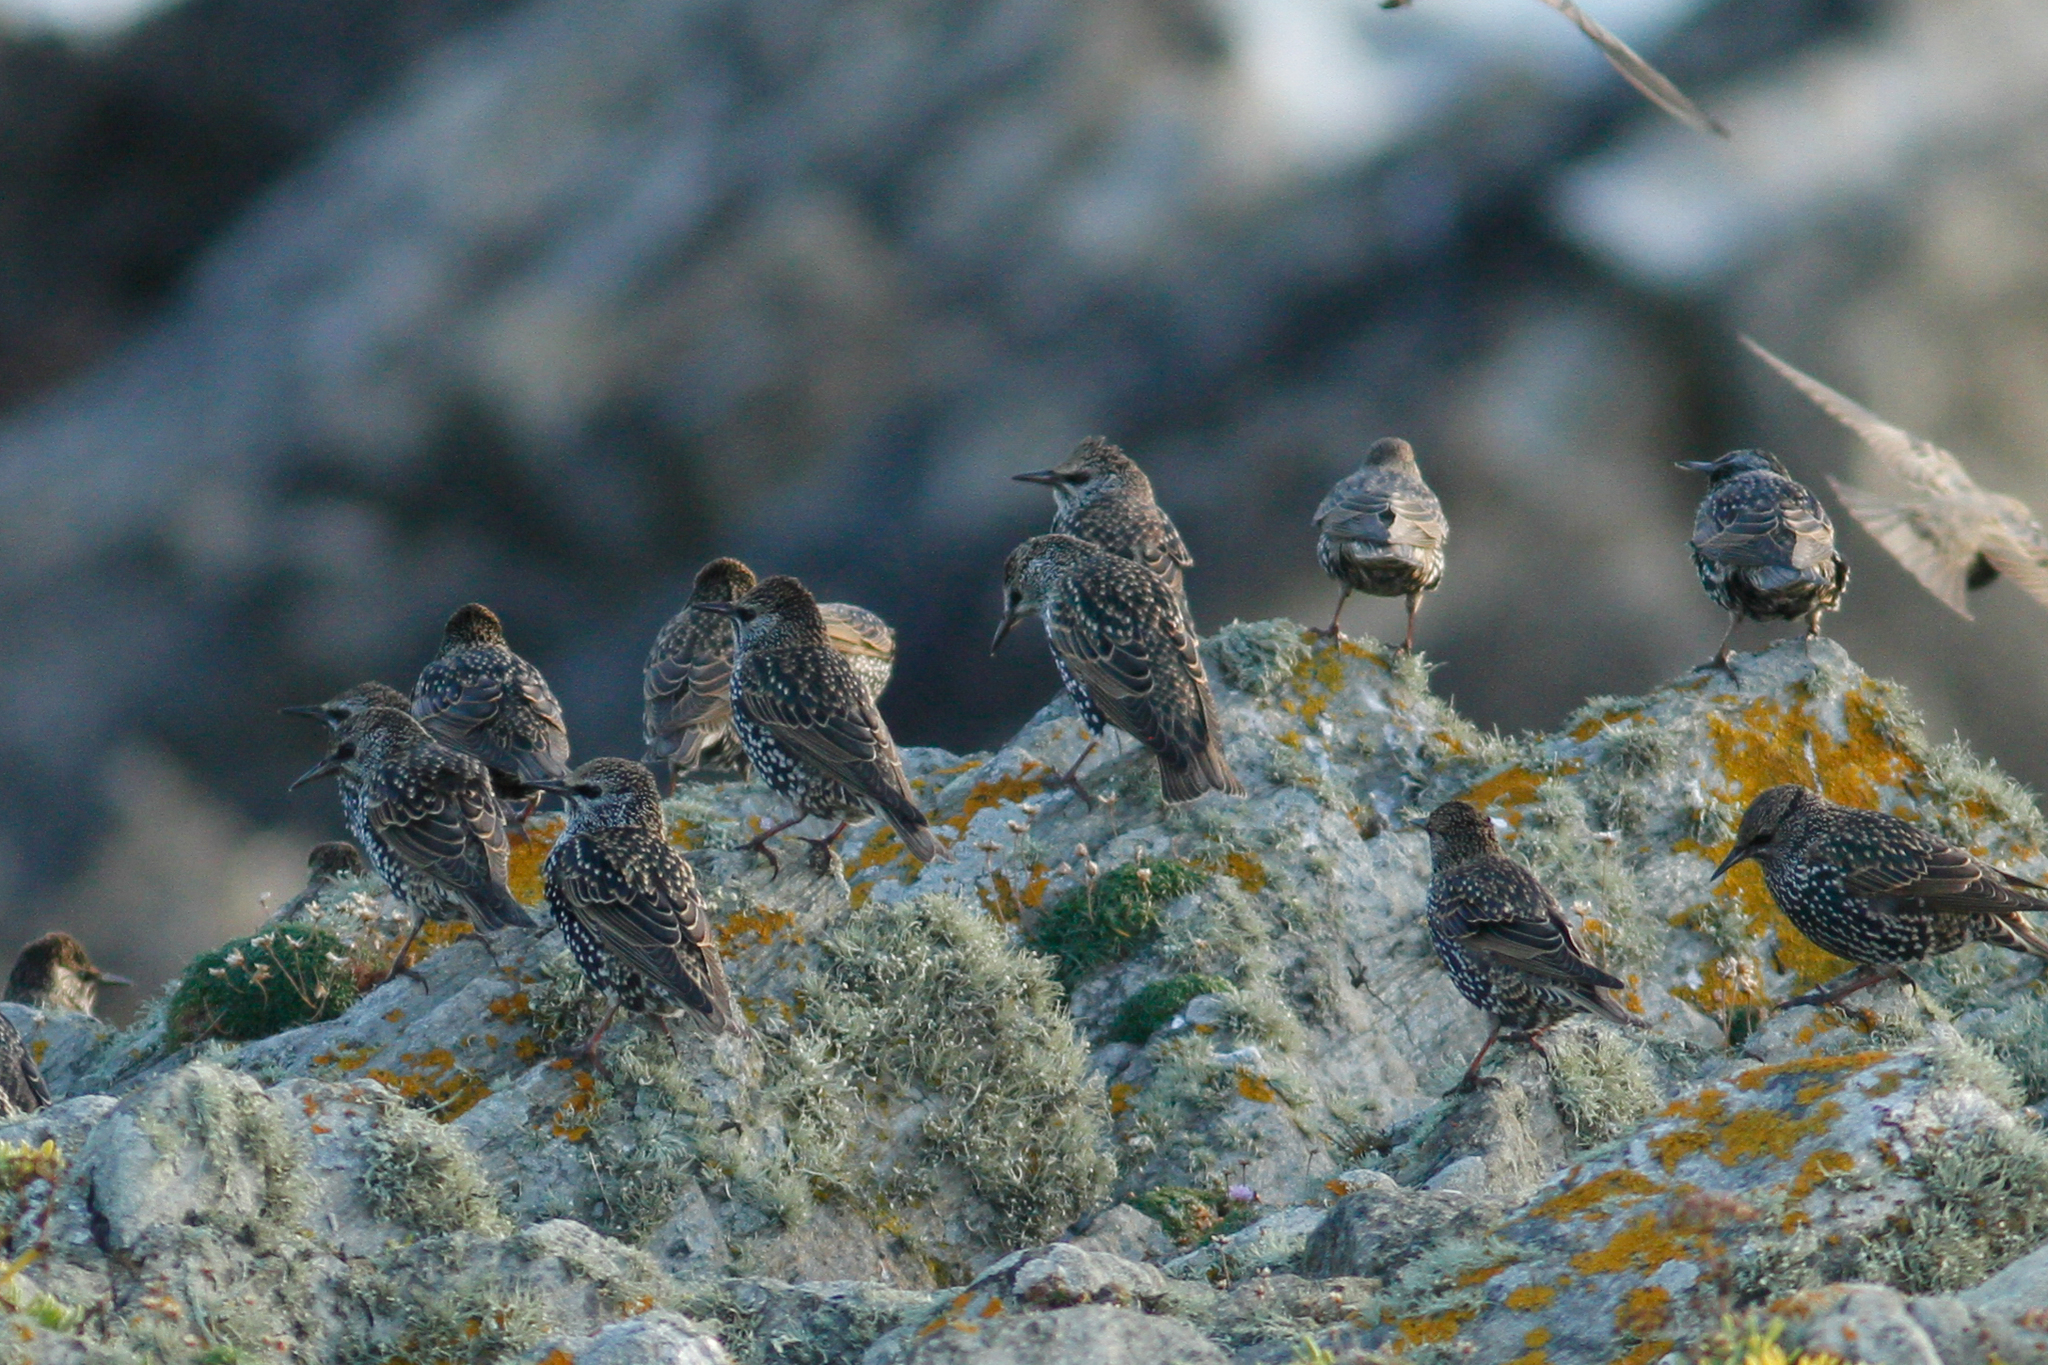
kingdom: Animalia
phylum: Chordata
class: Aves
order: Passeriformes
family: Sturnidae
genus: Sturnus
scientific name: Sturnus vulgaris
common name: Common starling
